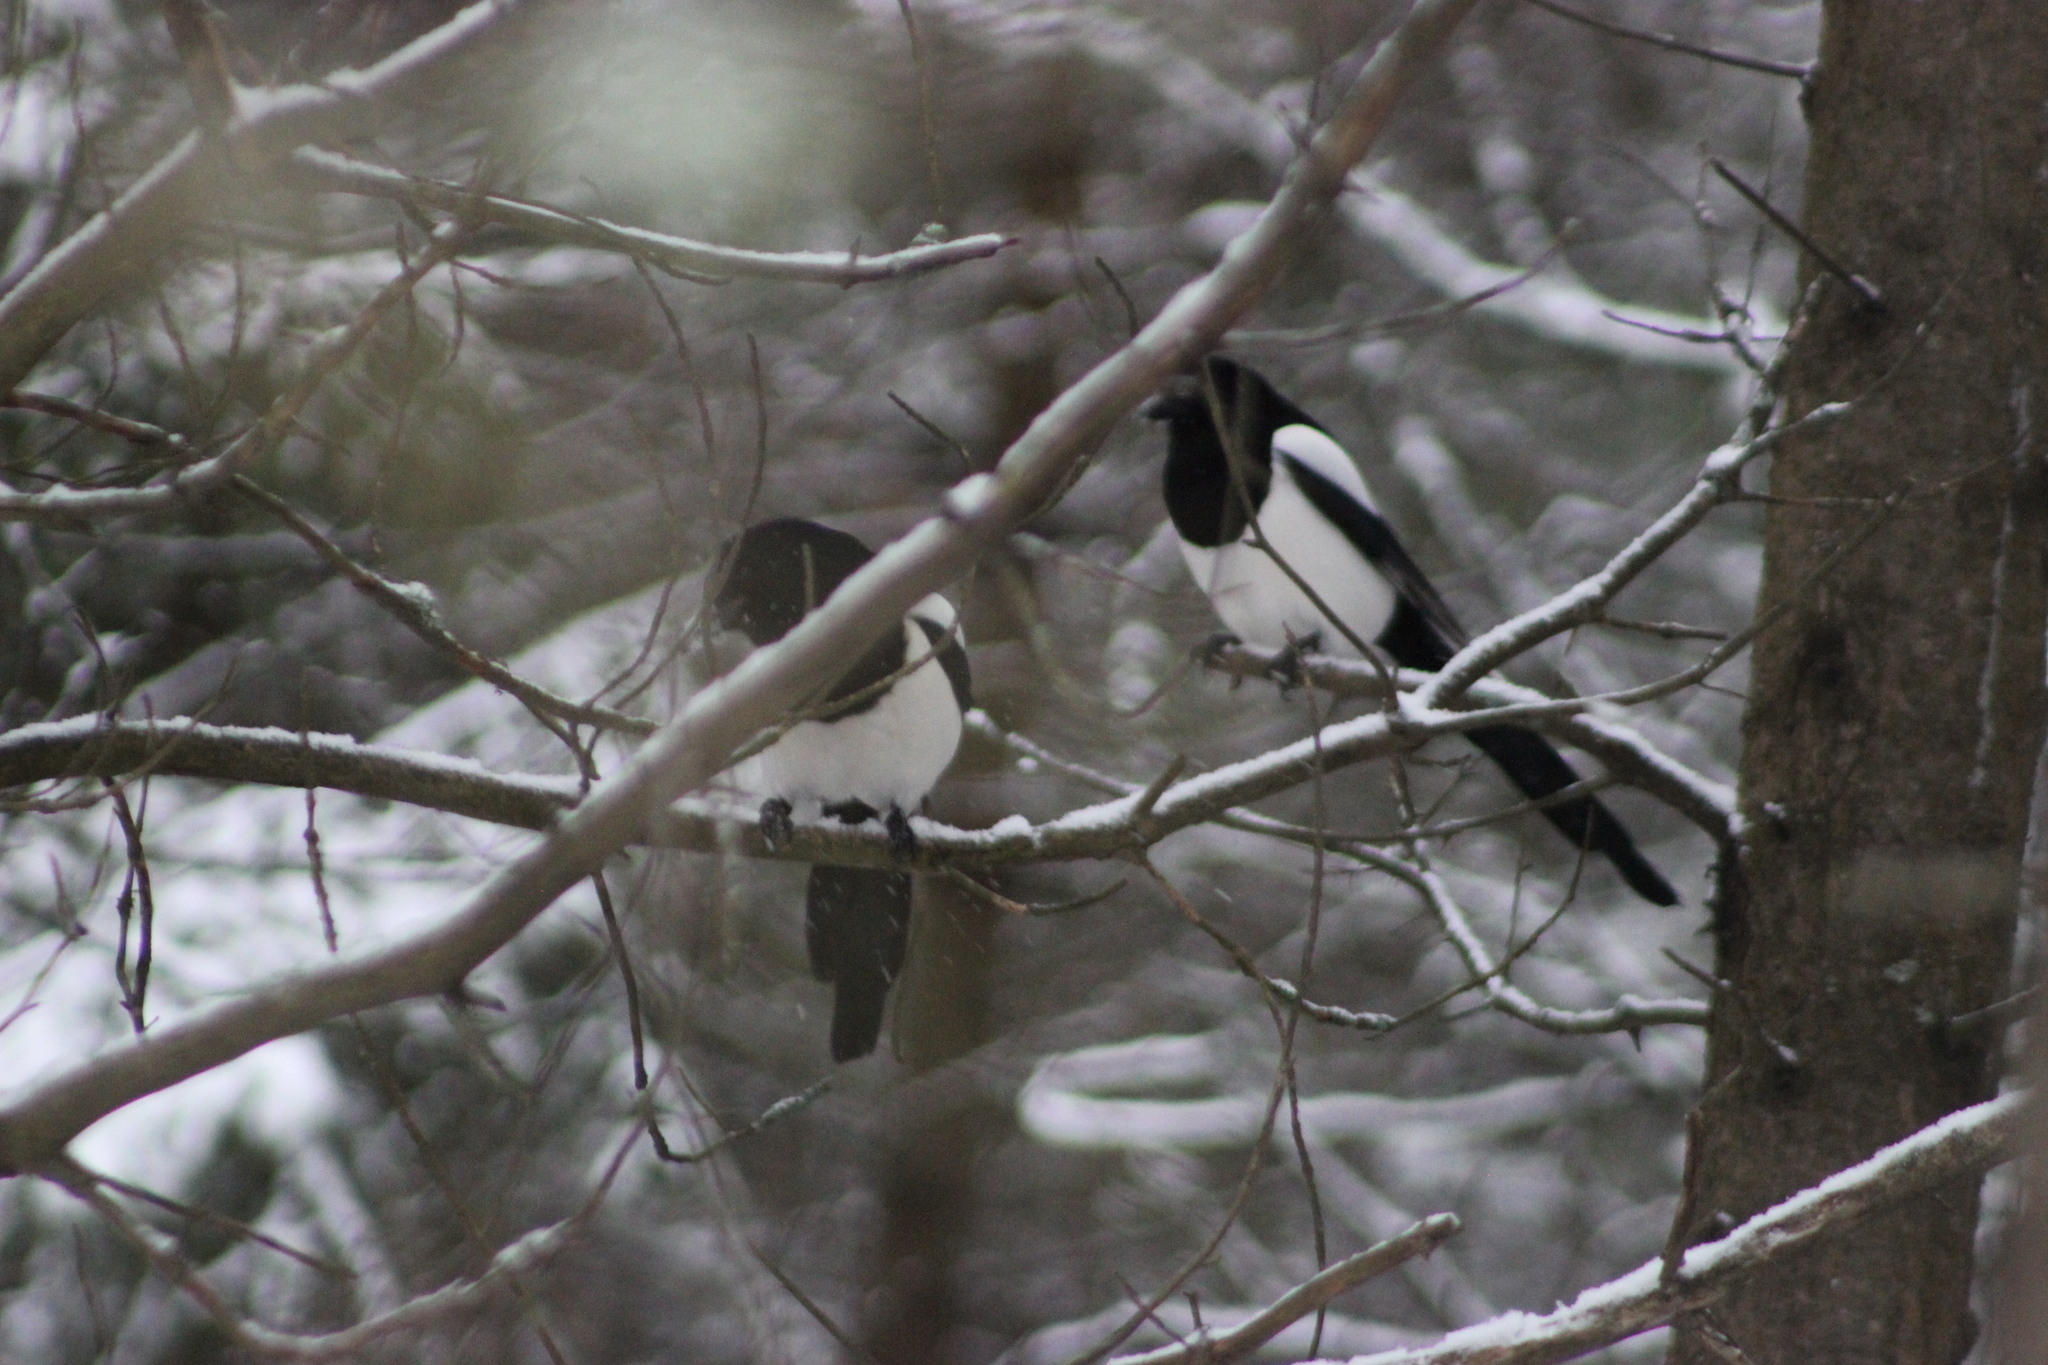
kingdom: Animalia
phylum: Chordata
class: Aves
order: Passeriformes
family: Corvidae
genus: Pica
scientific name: Pica pica
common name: Eurasian magpie
